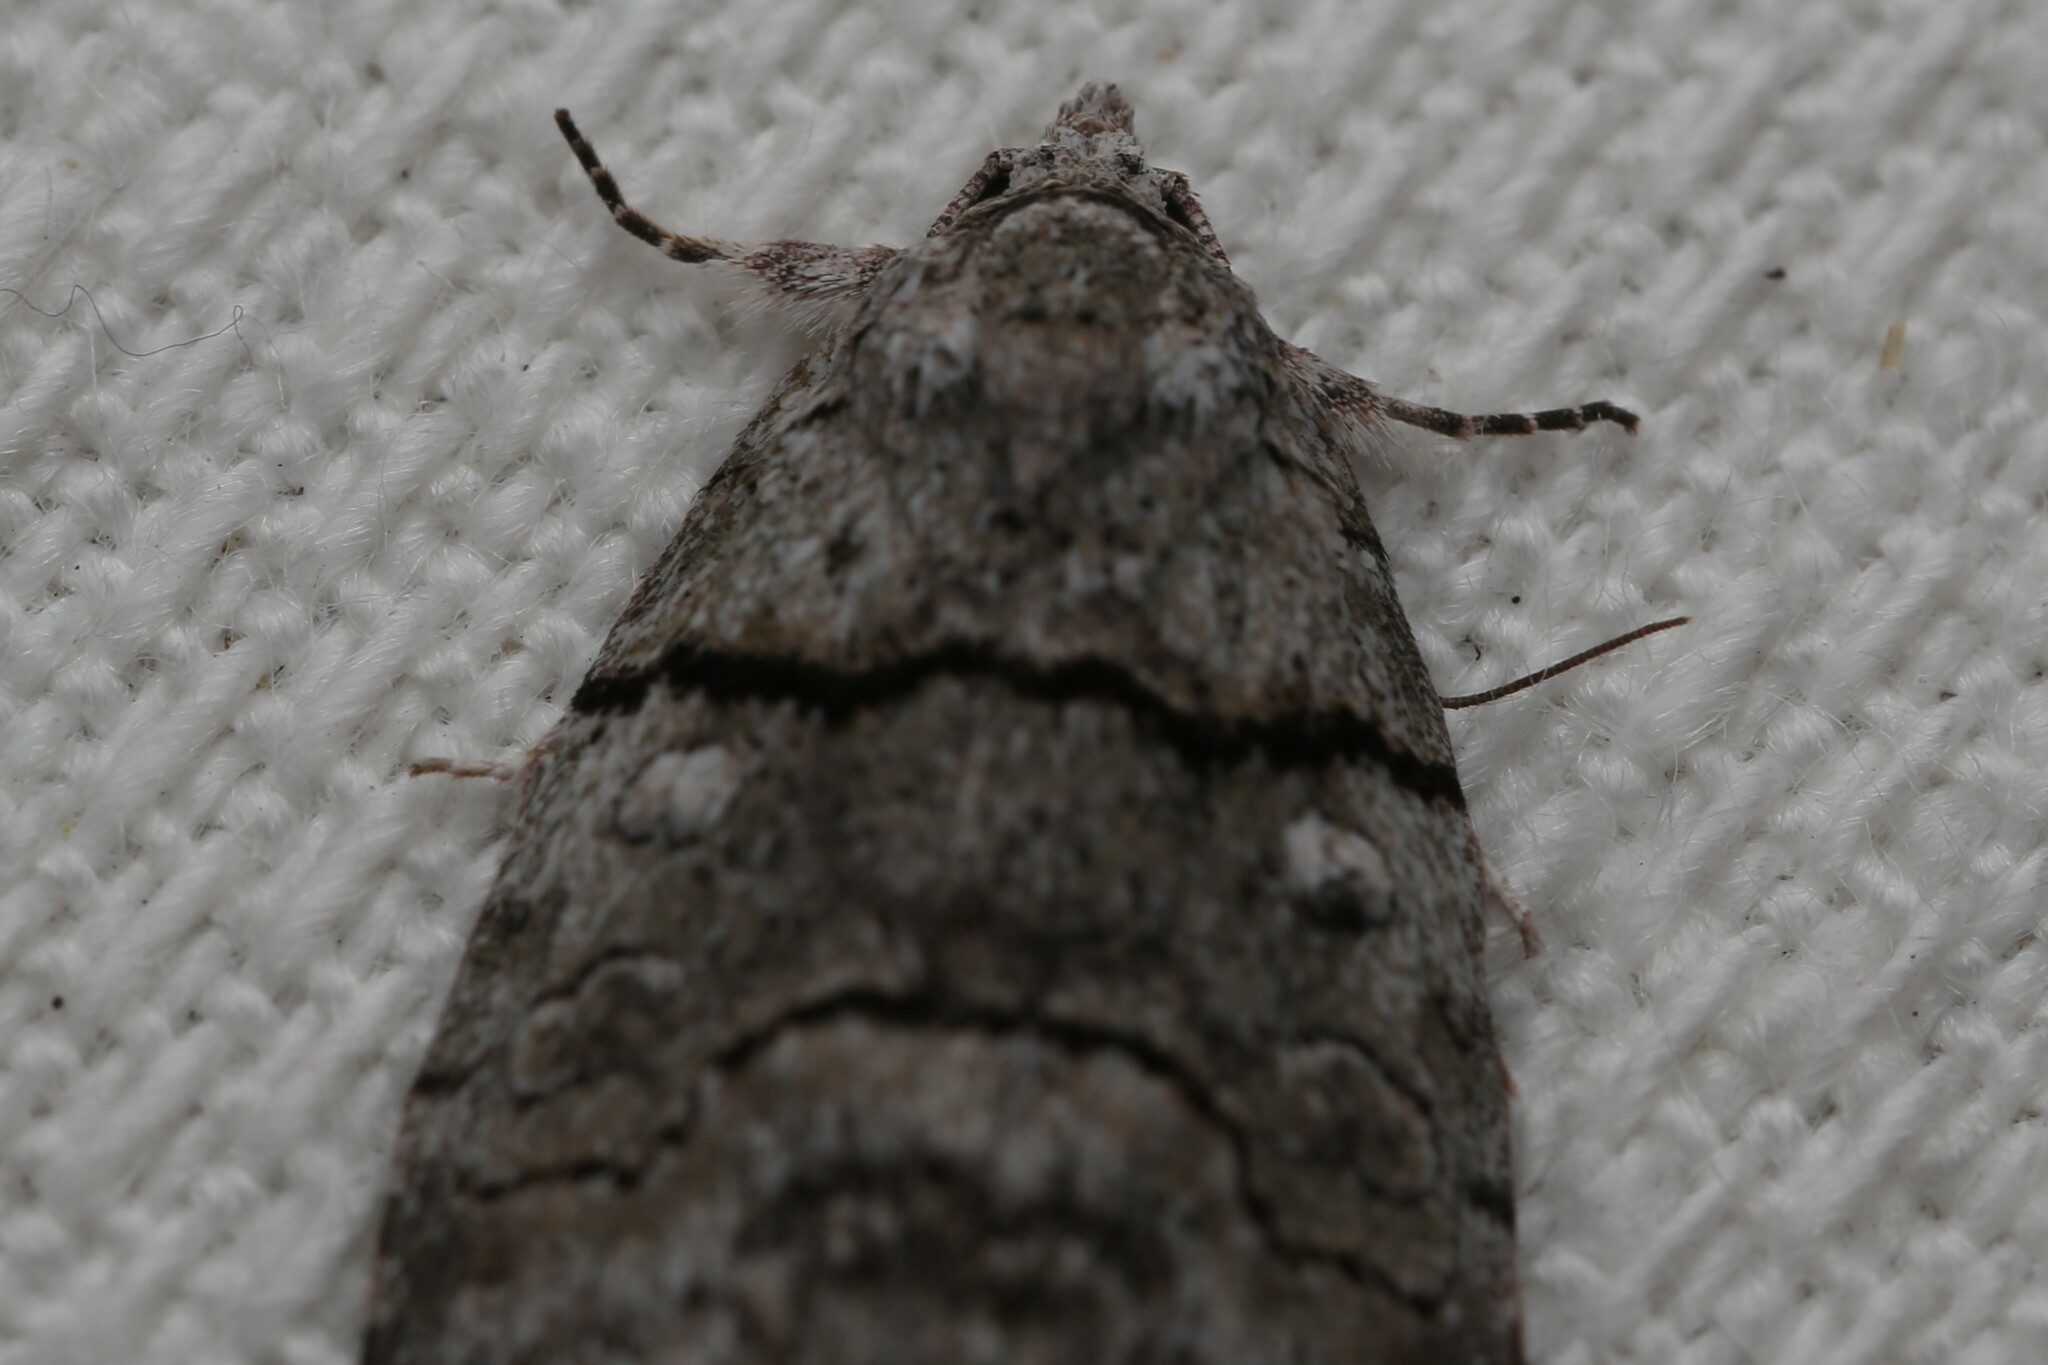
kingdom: Animalia
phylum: Arthropoda
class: Insecta
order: Lepidoptera
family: Nolidae
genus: Calathusa
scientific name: Calathusa dispila
